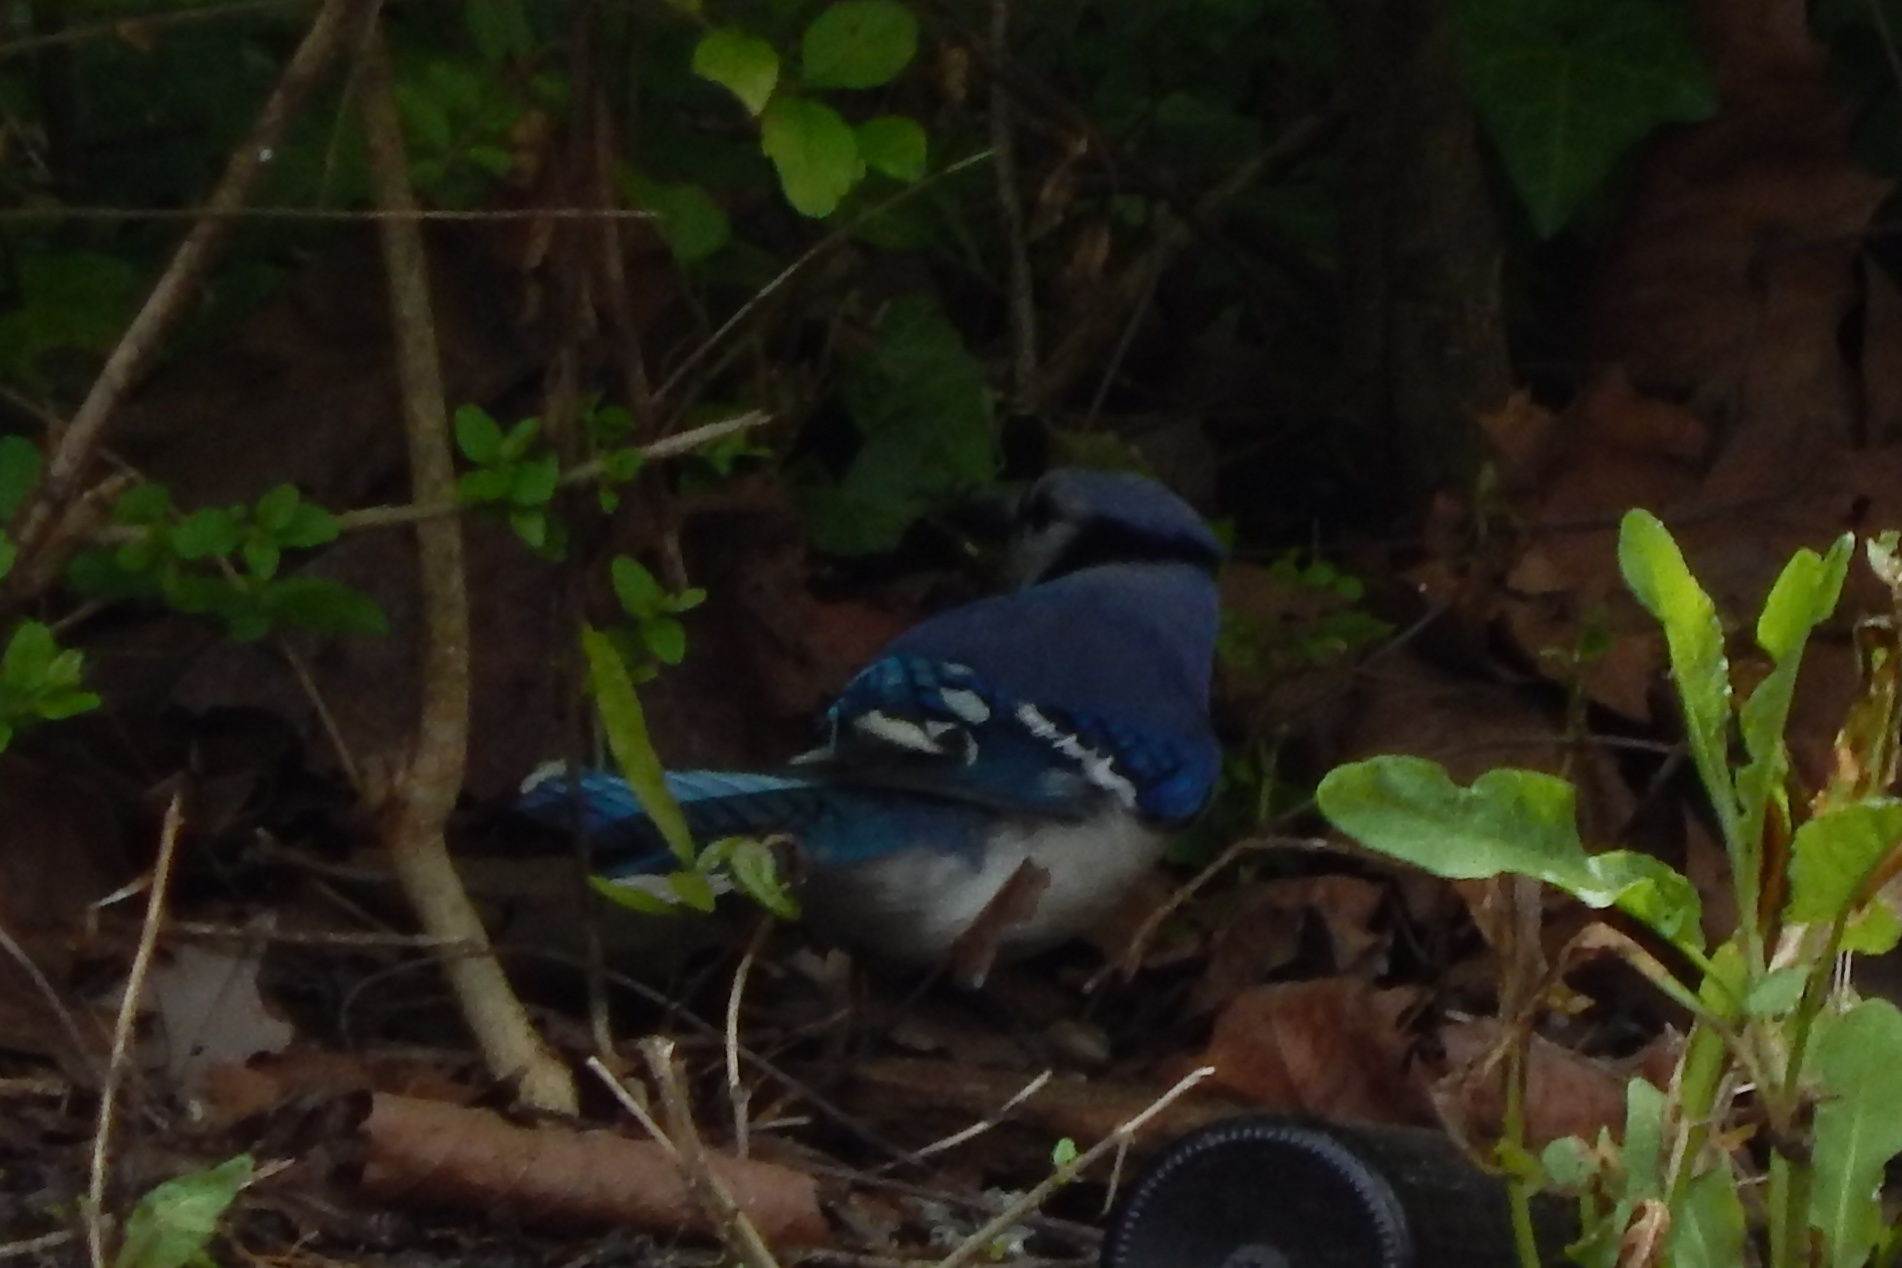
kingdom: Animalia
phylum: Chordata
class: Aves
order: Passeriformes
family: Corvidae
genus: Cyanocitta
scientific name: Cyanocitta cristata
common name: Blue jay
